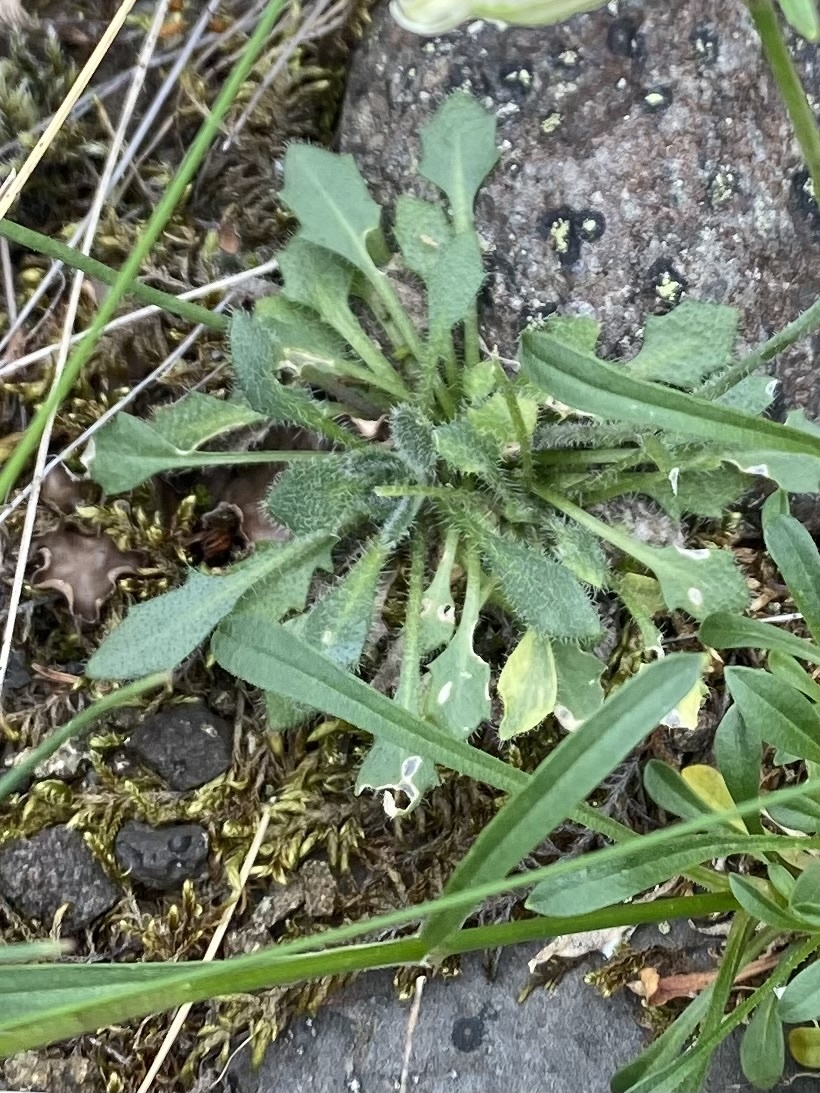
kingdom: Plantae
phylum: Tracheophyta
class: Magnoliopsida
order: Brassicales
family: Brassicaceae
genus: Arabidopsis
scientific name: Arabidopsis lyrata
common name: Lyrate rockcress
